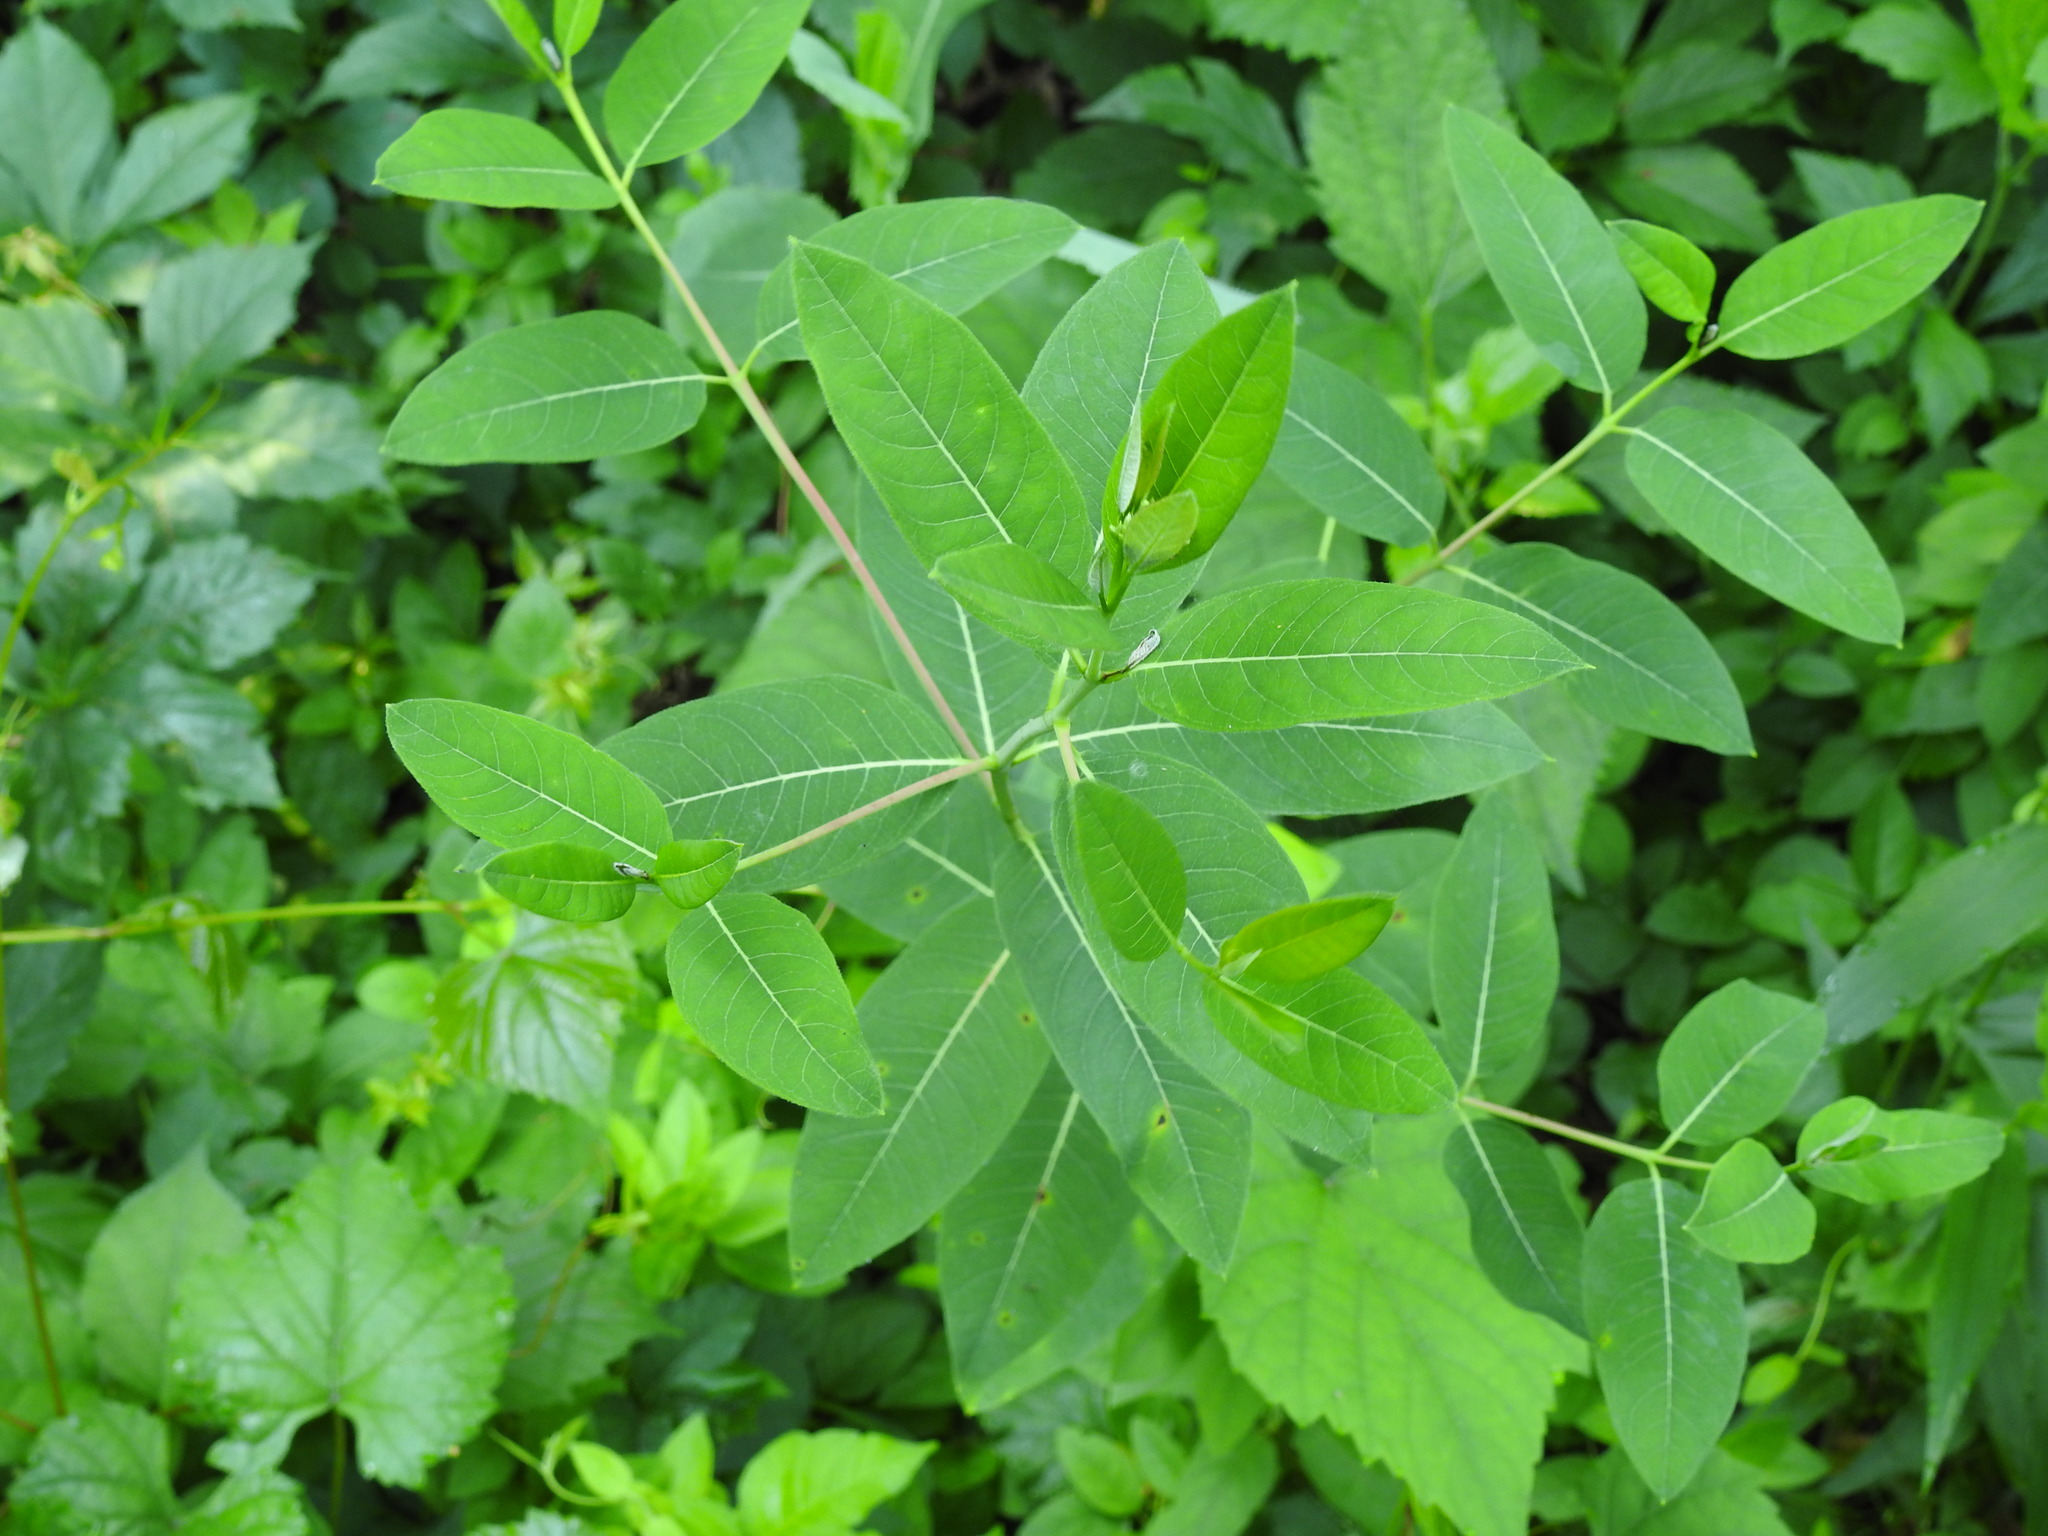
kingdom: Plantae
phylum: Tracheophyta
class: Magnoliopsida
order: Gentianales
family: Apocynaceae
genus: Apocynum
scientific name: Apocynum cannabinum
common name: Hemp dogbane
